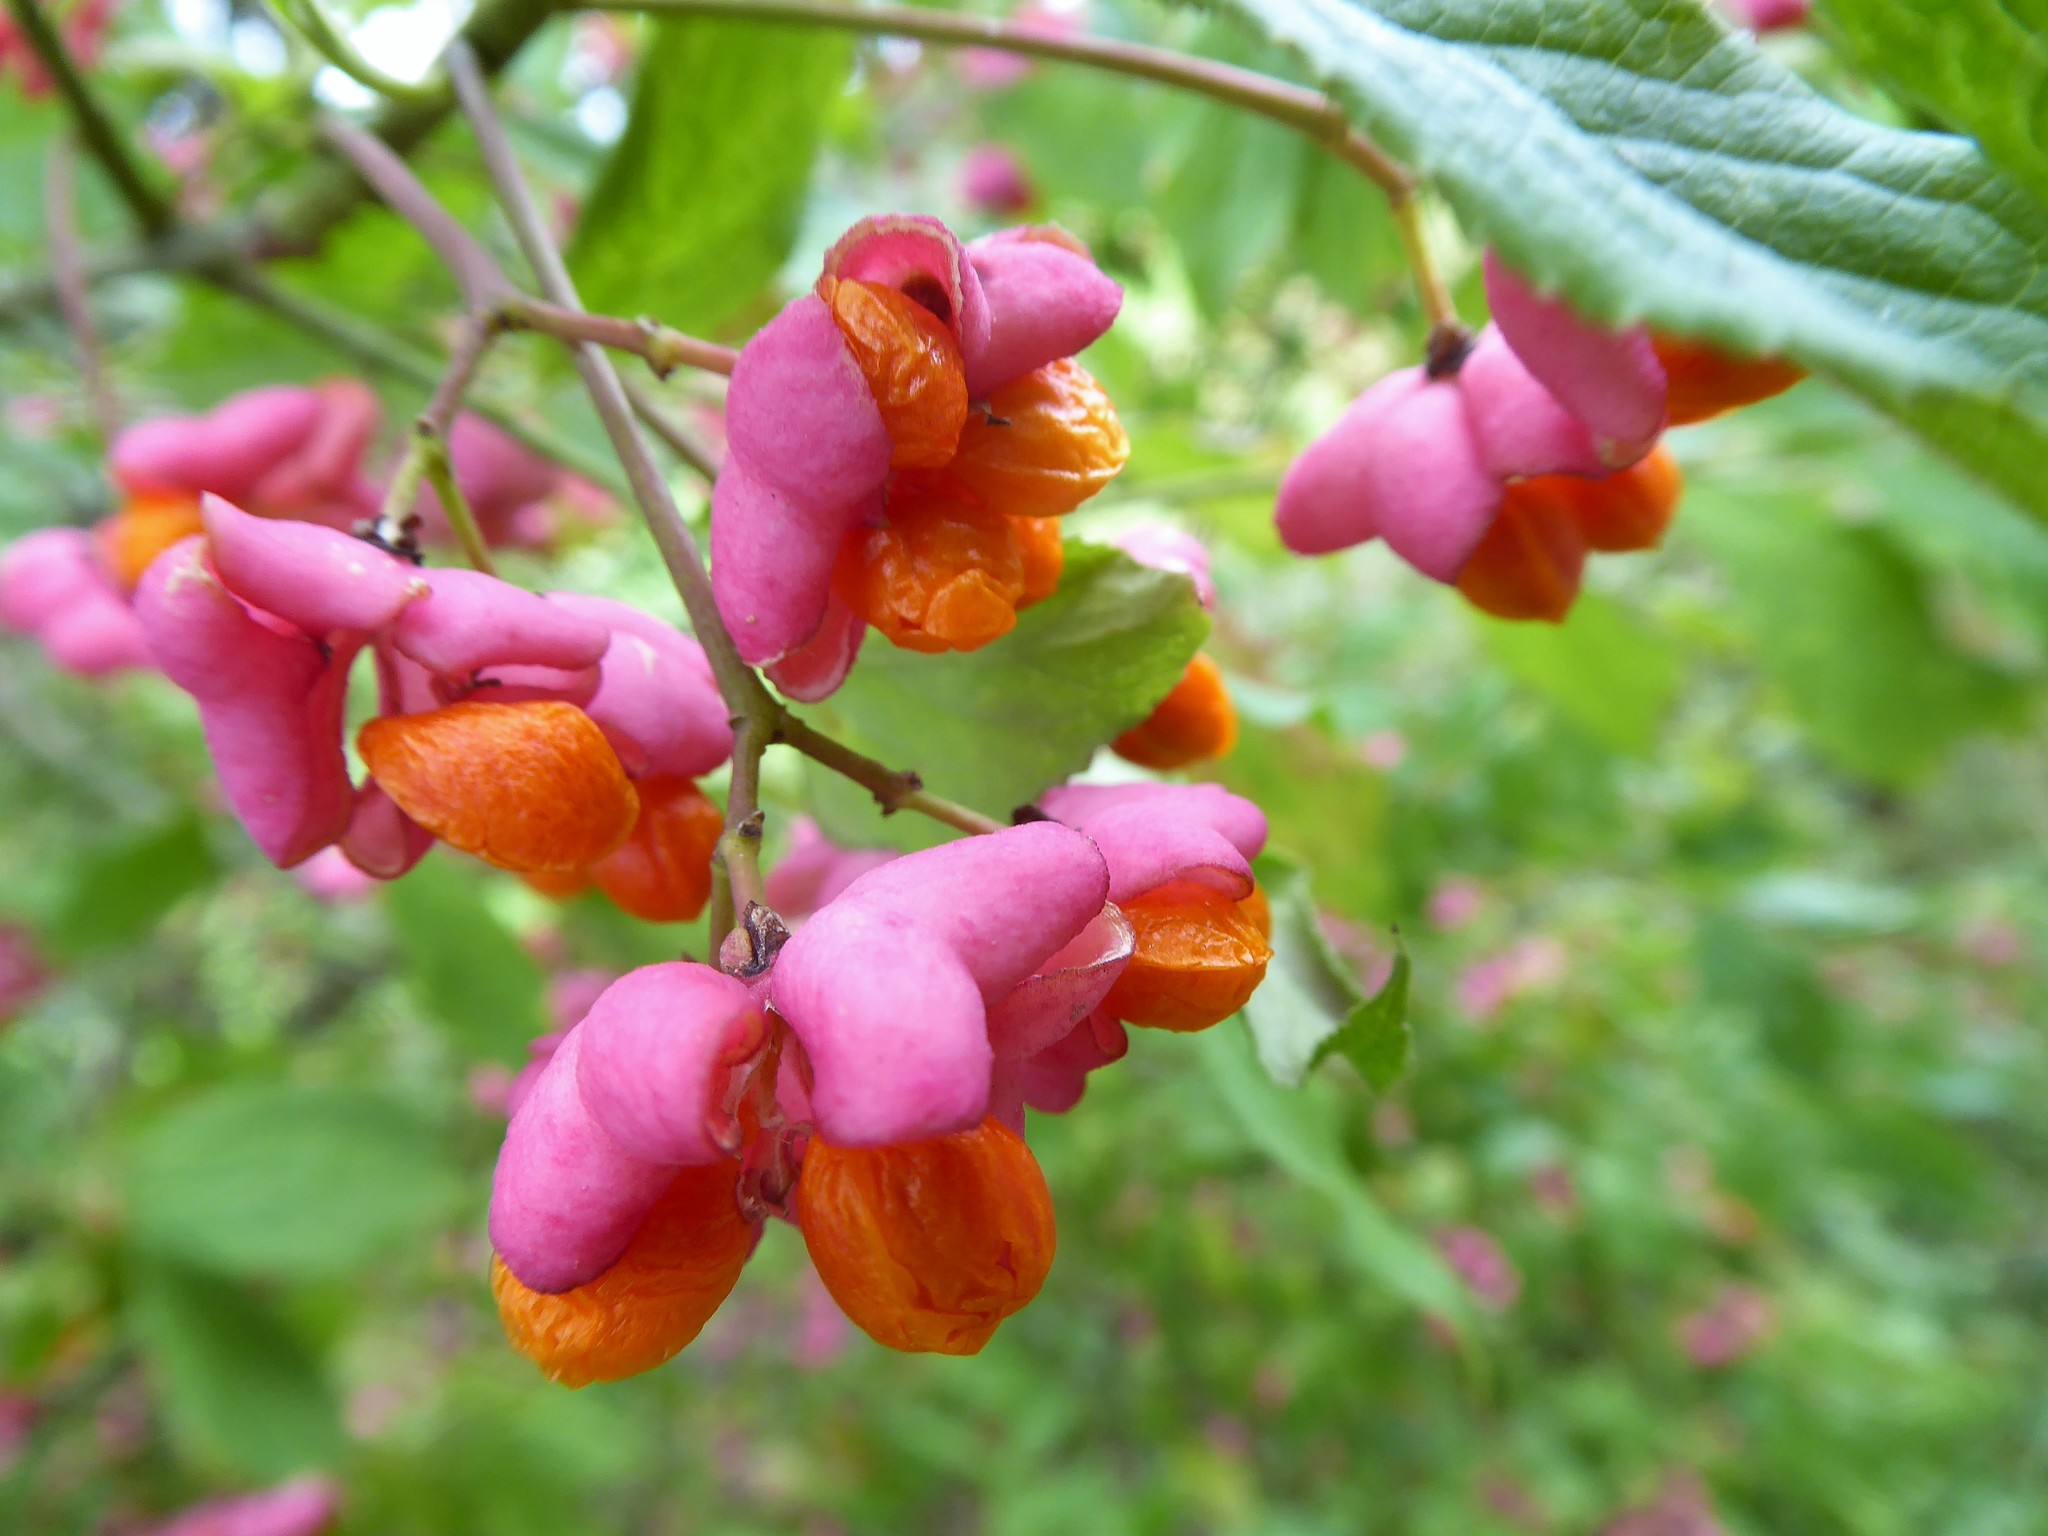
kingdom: Plantae
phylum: Tracheophyta
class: Magnoliopsida
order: Celastrales
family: Celastraceae
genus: Euonymus
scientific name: Euonymus europaeus
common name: Spindle
